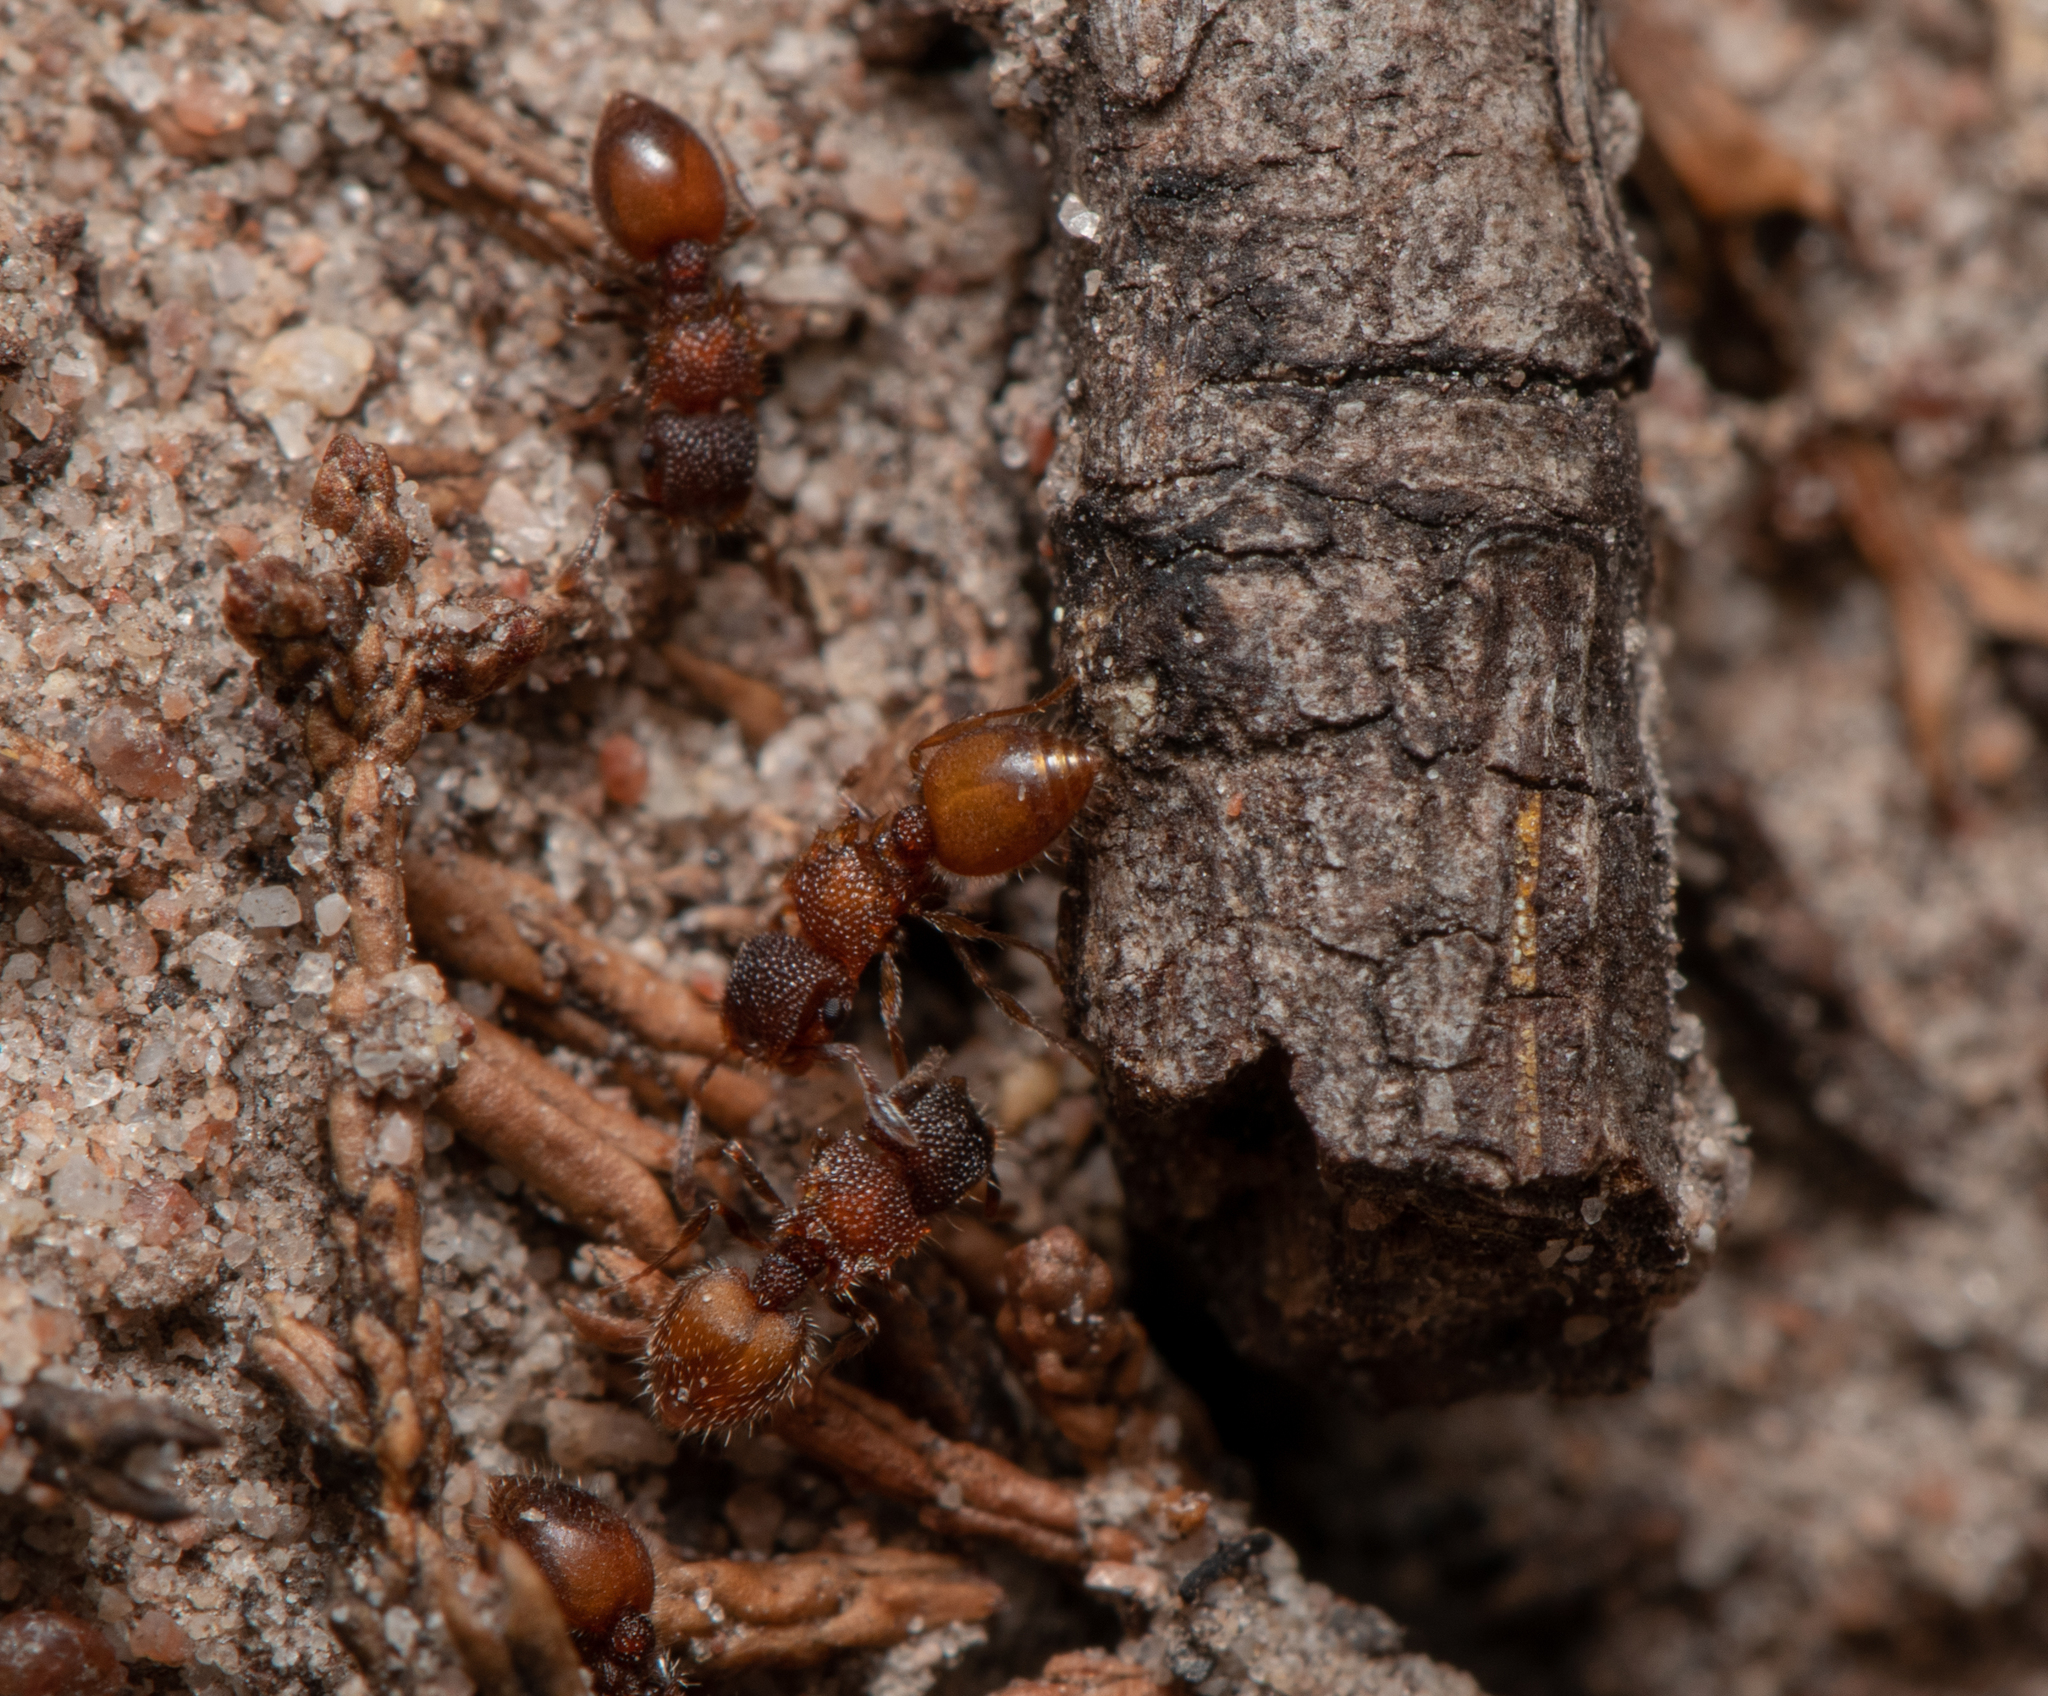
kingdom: Animalia
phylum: Arthropoda
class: Insecta
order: Hymenoptera
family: Formicidae
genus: Meranoplus
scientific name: Meranoplus puryi
